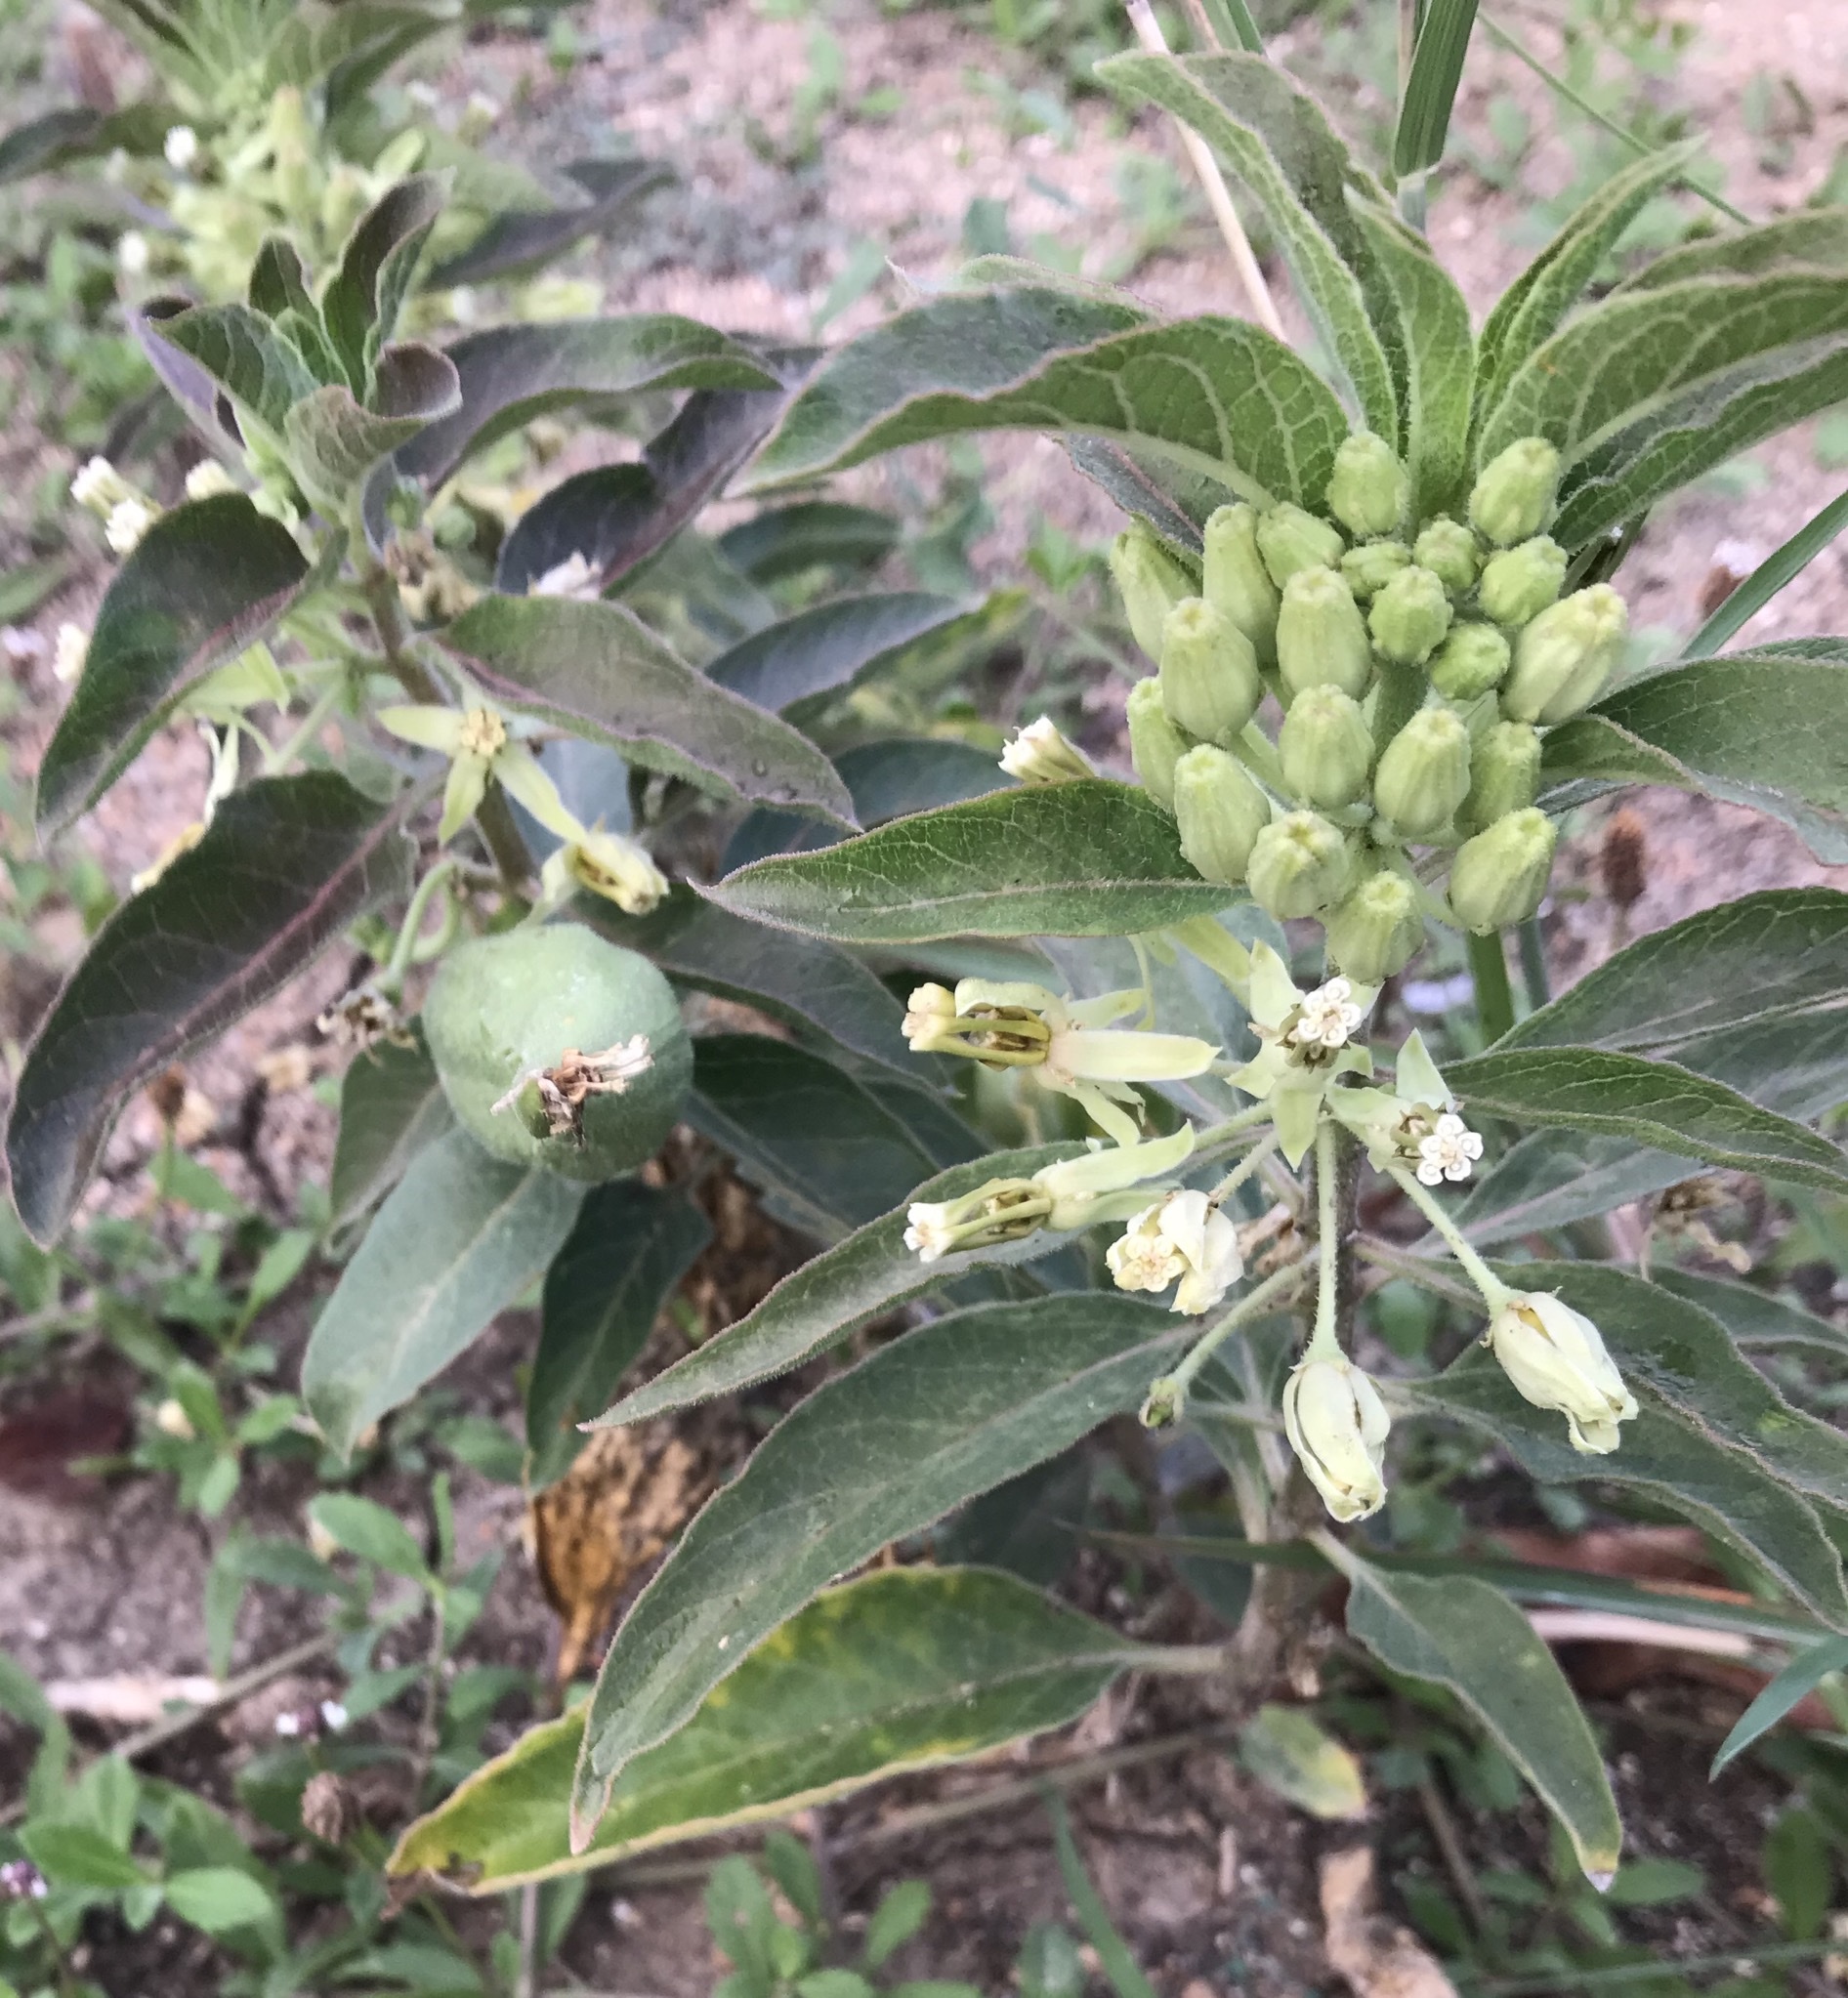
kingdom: Plantae
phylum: Tracheophyta
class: Magnoliopsida
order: Gentianales
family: Apocynaceae
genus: Asclepias
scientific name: Asclepias oenotheroides
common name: Zizotes milkweed
